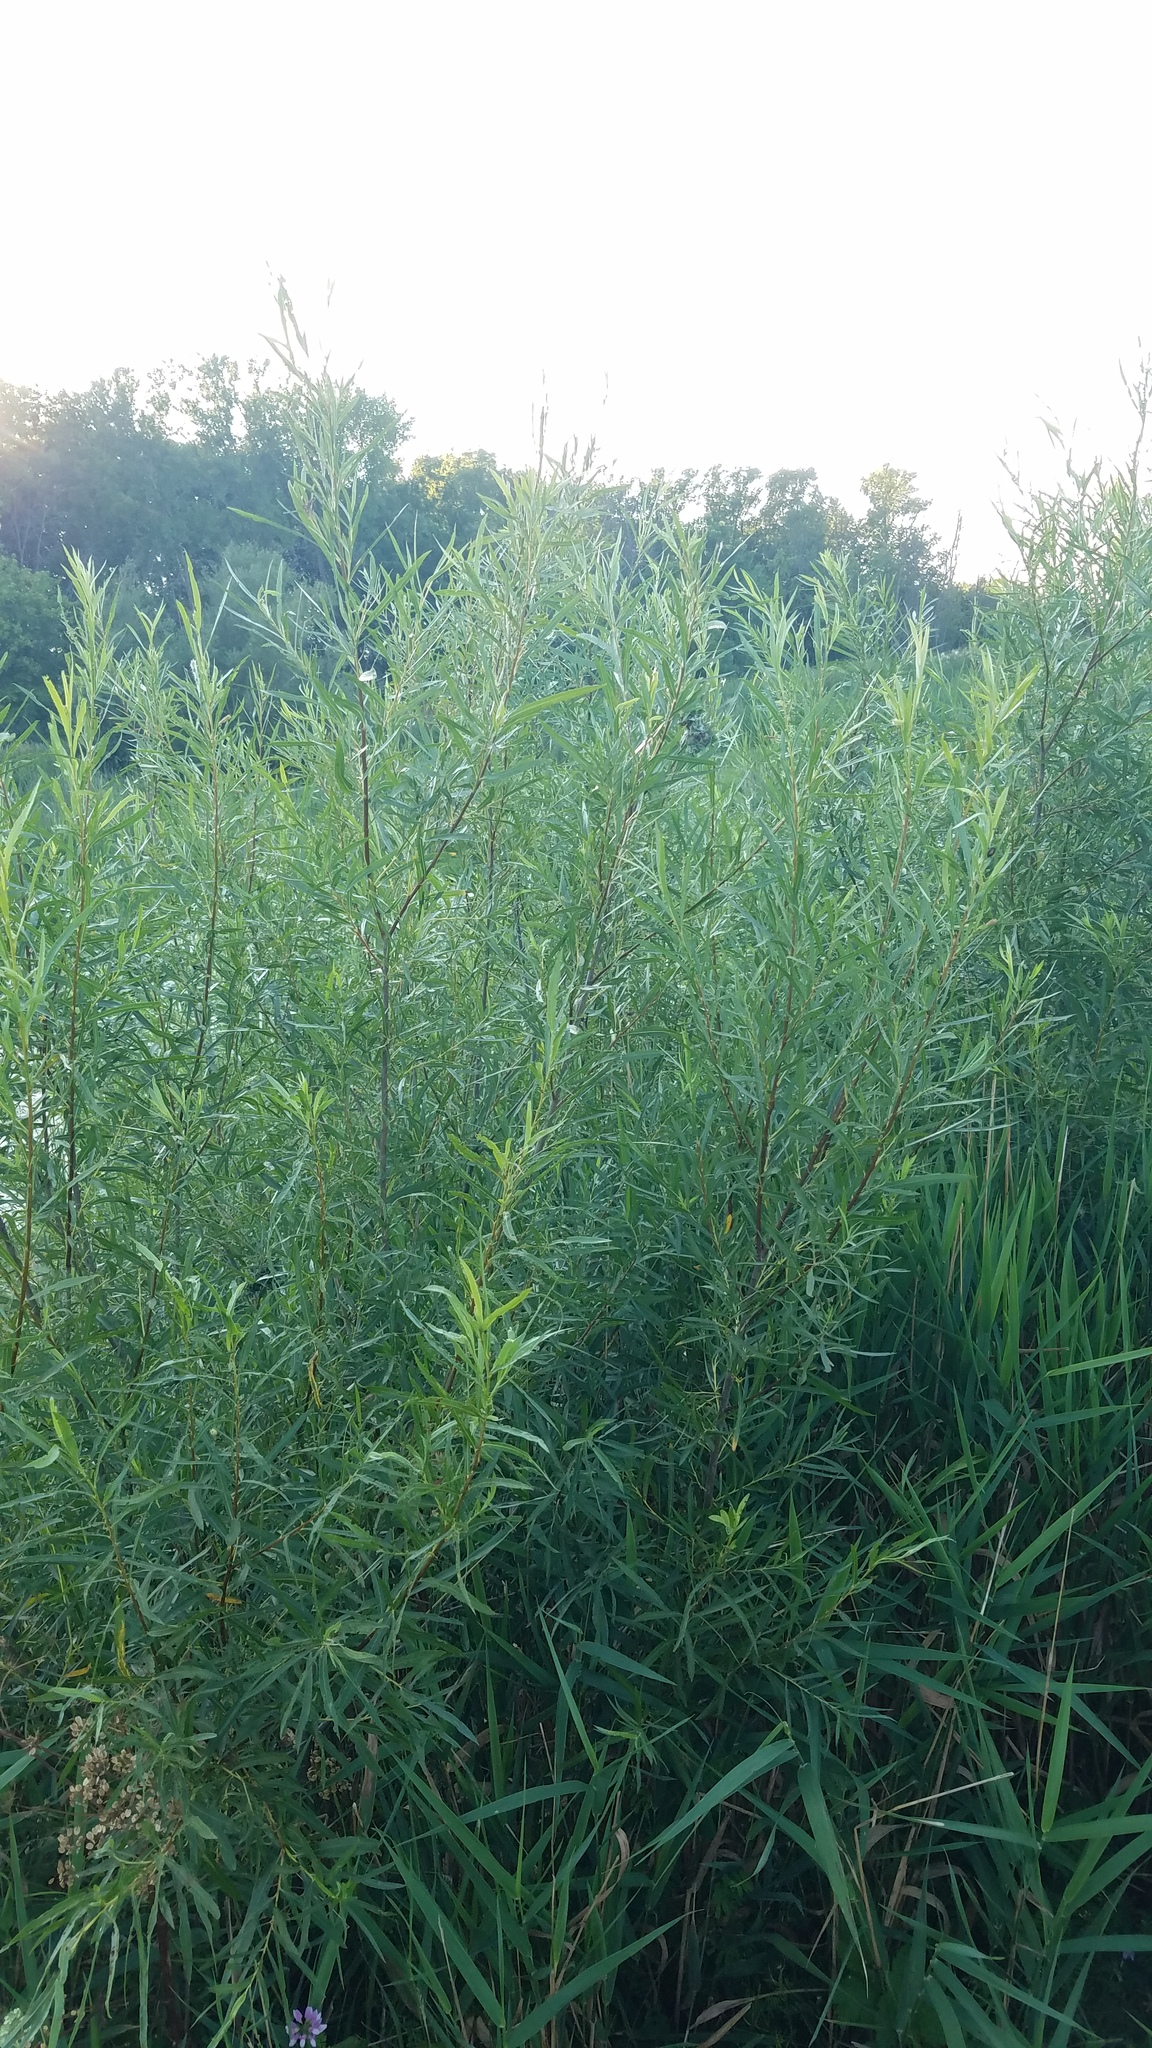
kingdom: Plantae
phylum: Tracheophyta
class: Magnoliopsida
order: Malpighiales
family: Salicaceae
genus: Salix
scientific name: Salix interior
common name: Sandbar willow
